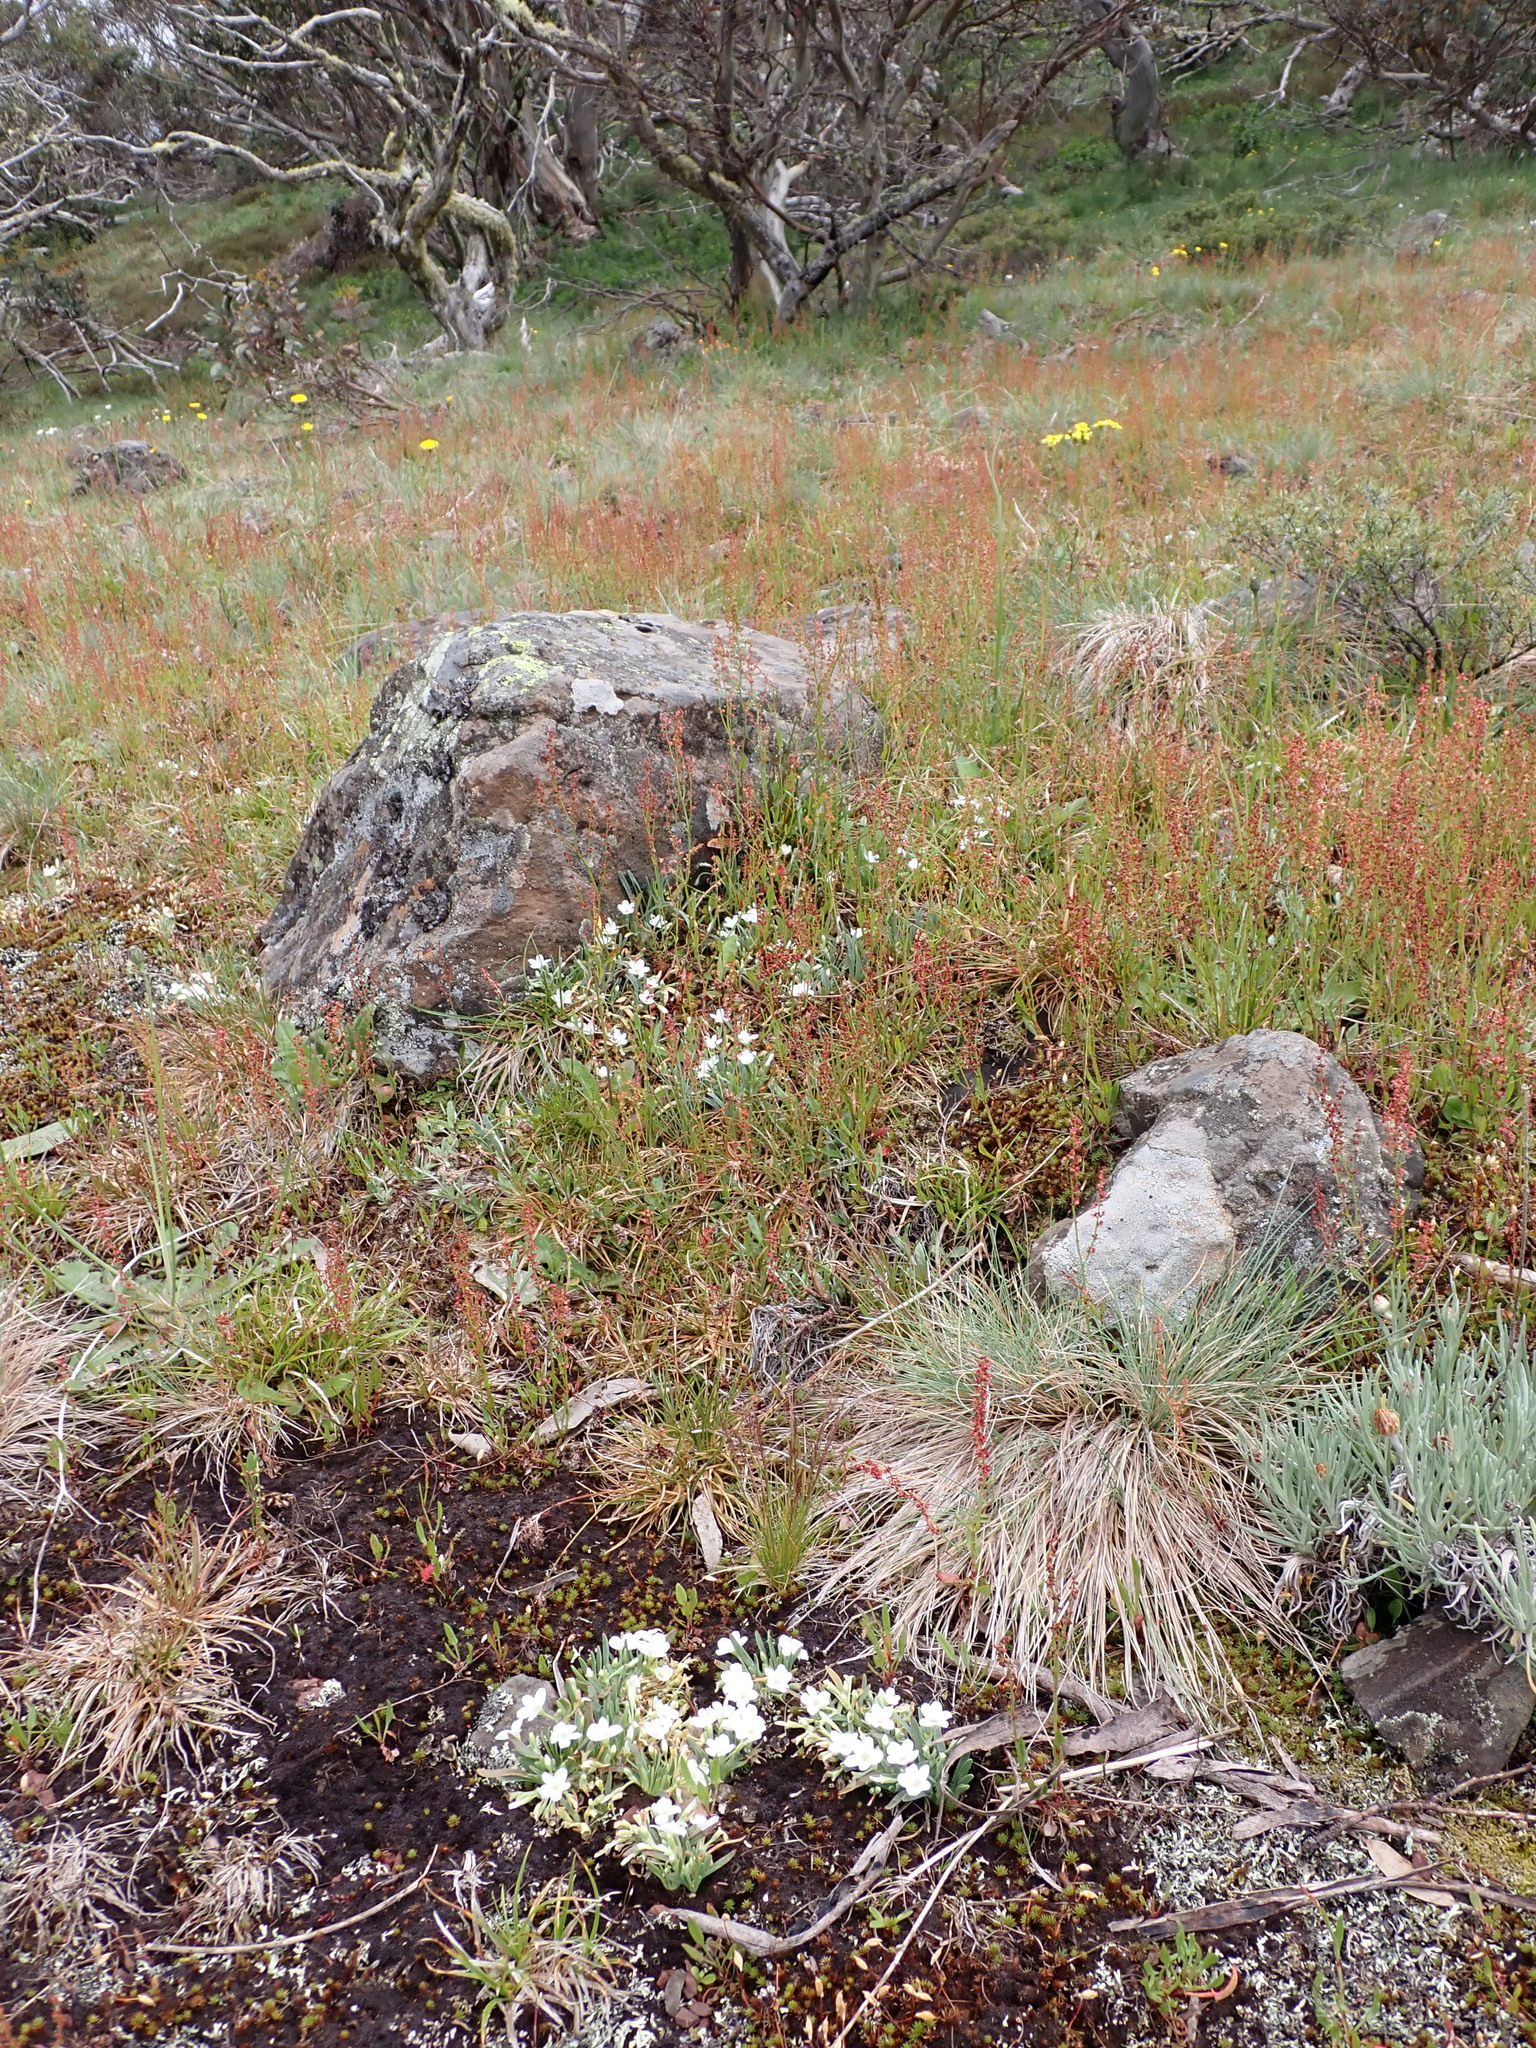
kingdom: Plantae
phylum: Tracheophyta
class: Magnoliopsida
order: Caryophyllales
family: Montiaceae
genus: Montia
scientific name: Montia australasica
